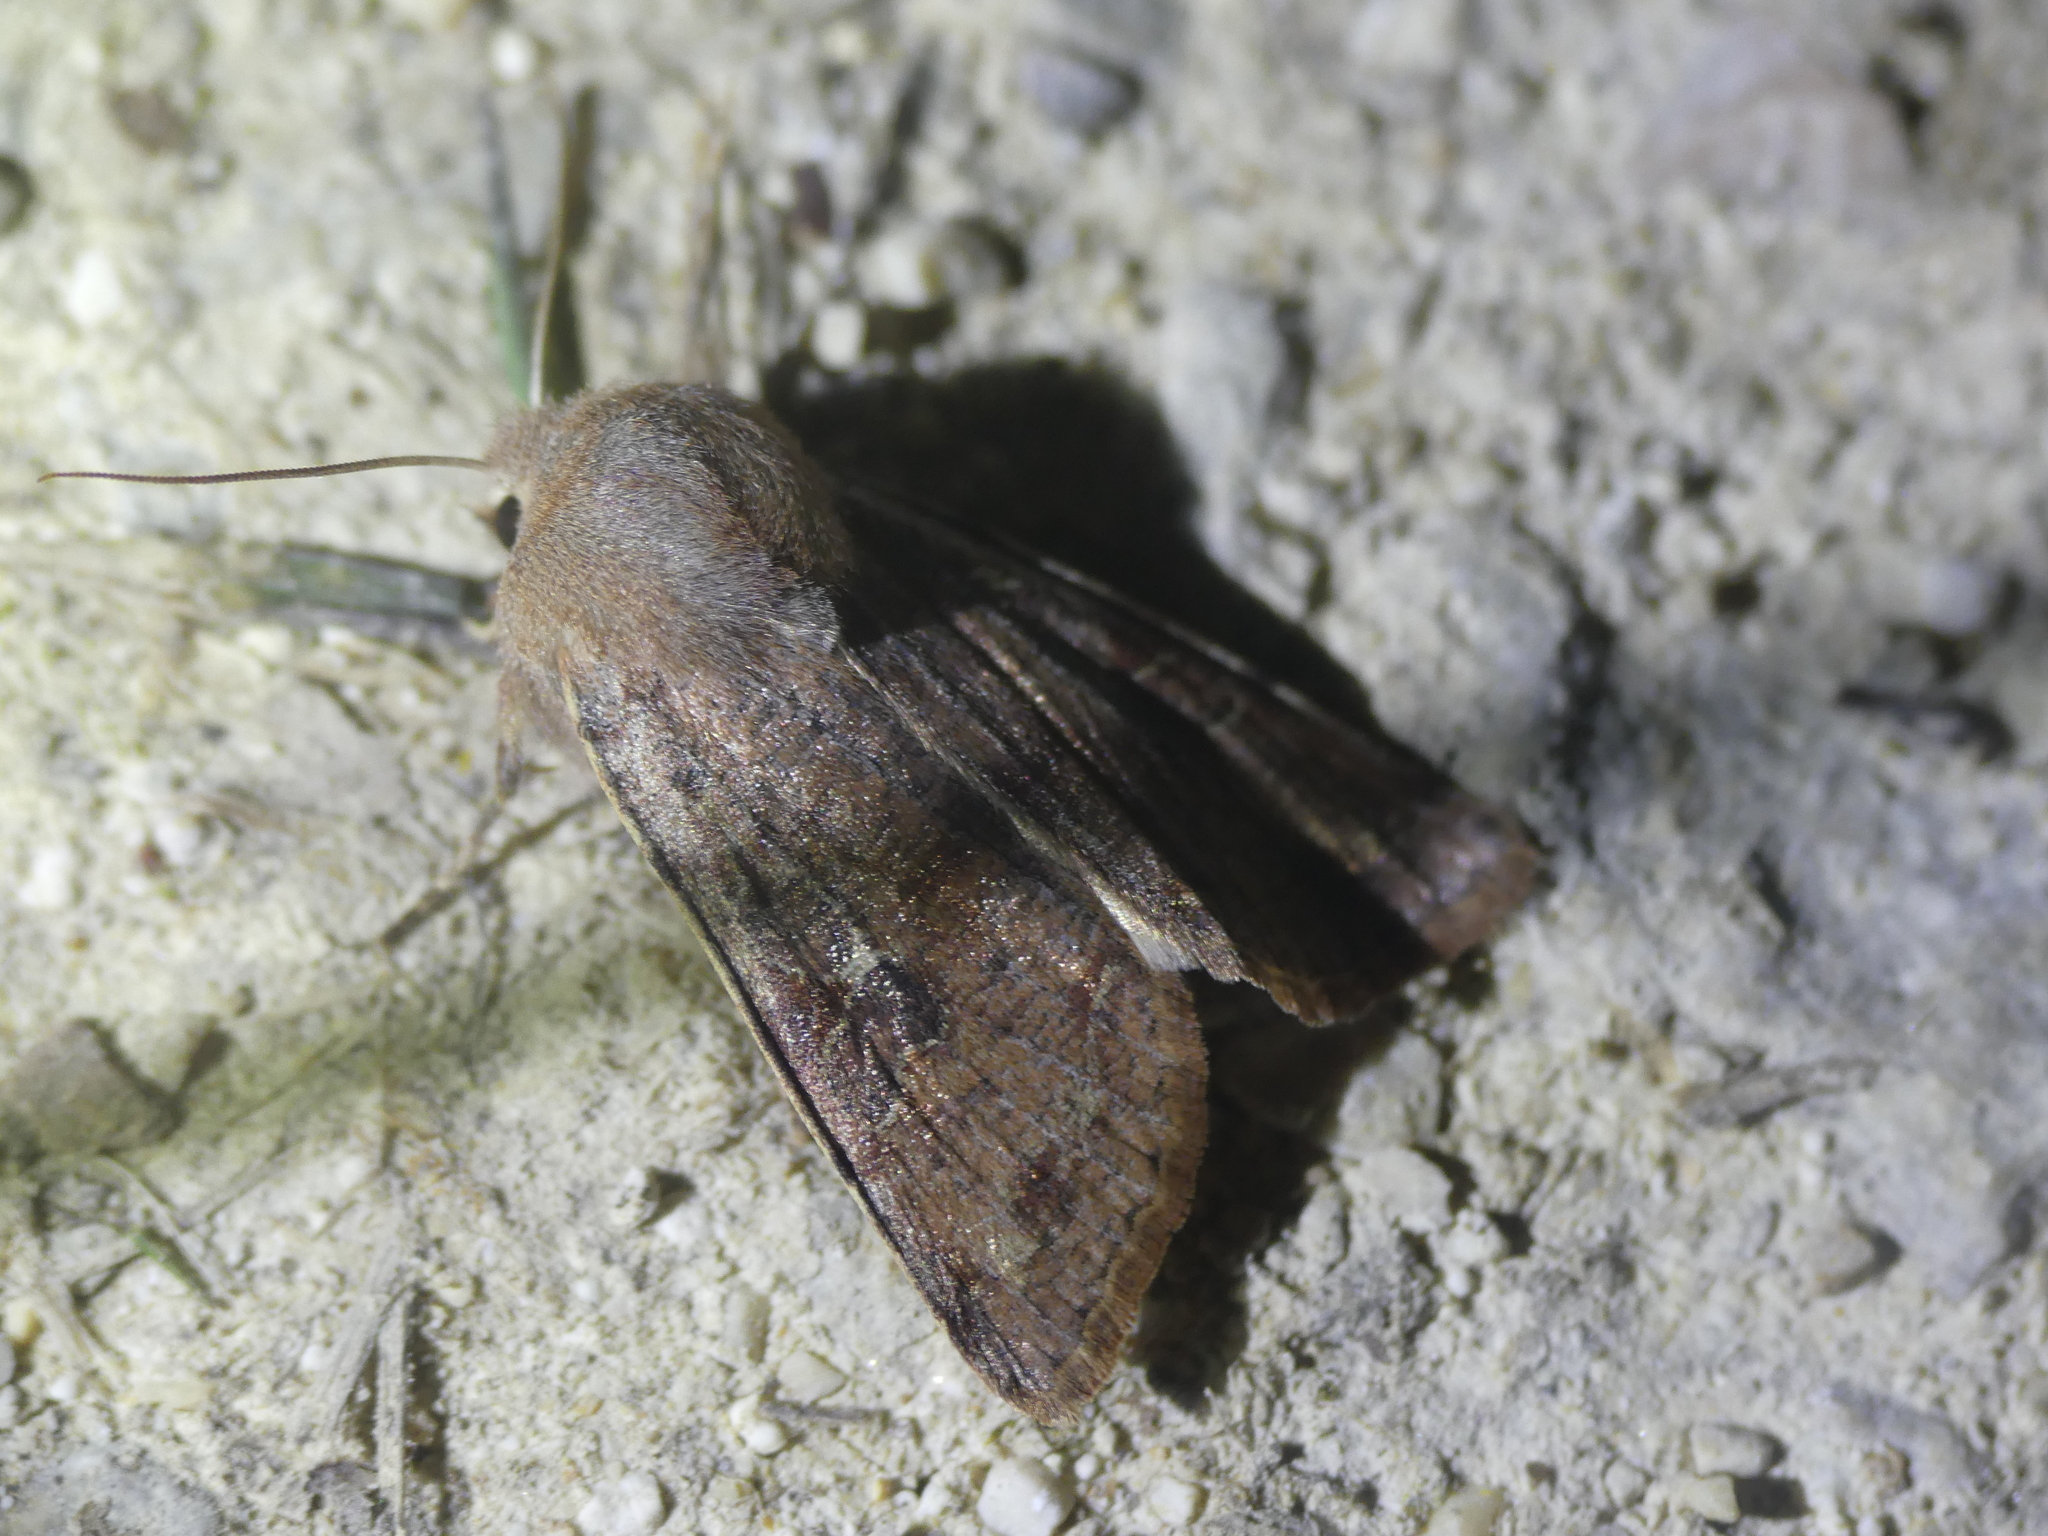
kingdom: Animalia
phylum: Arthropoda
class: Insecta
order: Lepidoptera
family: Noctuidae
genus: Orthosia
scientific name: Orthosia incerta
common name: Clouded drab
